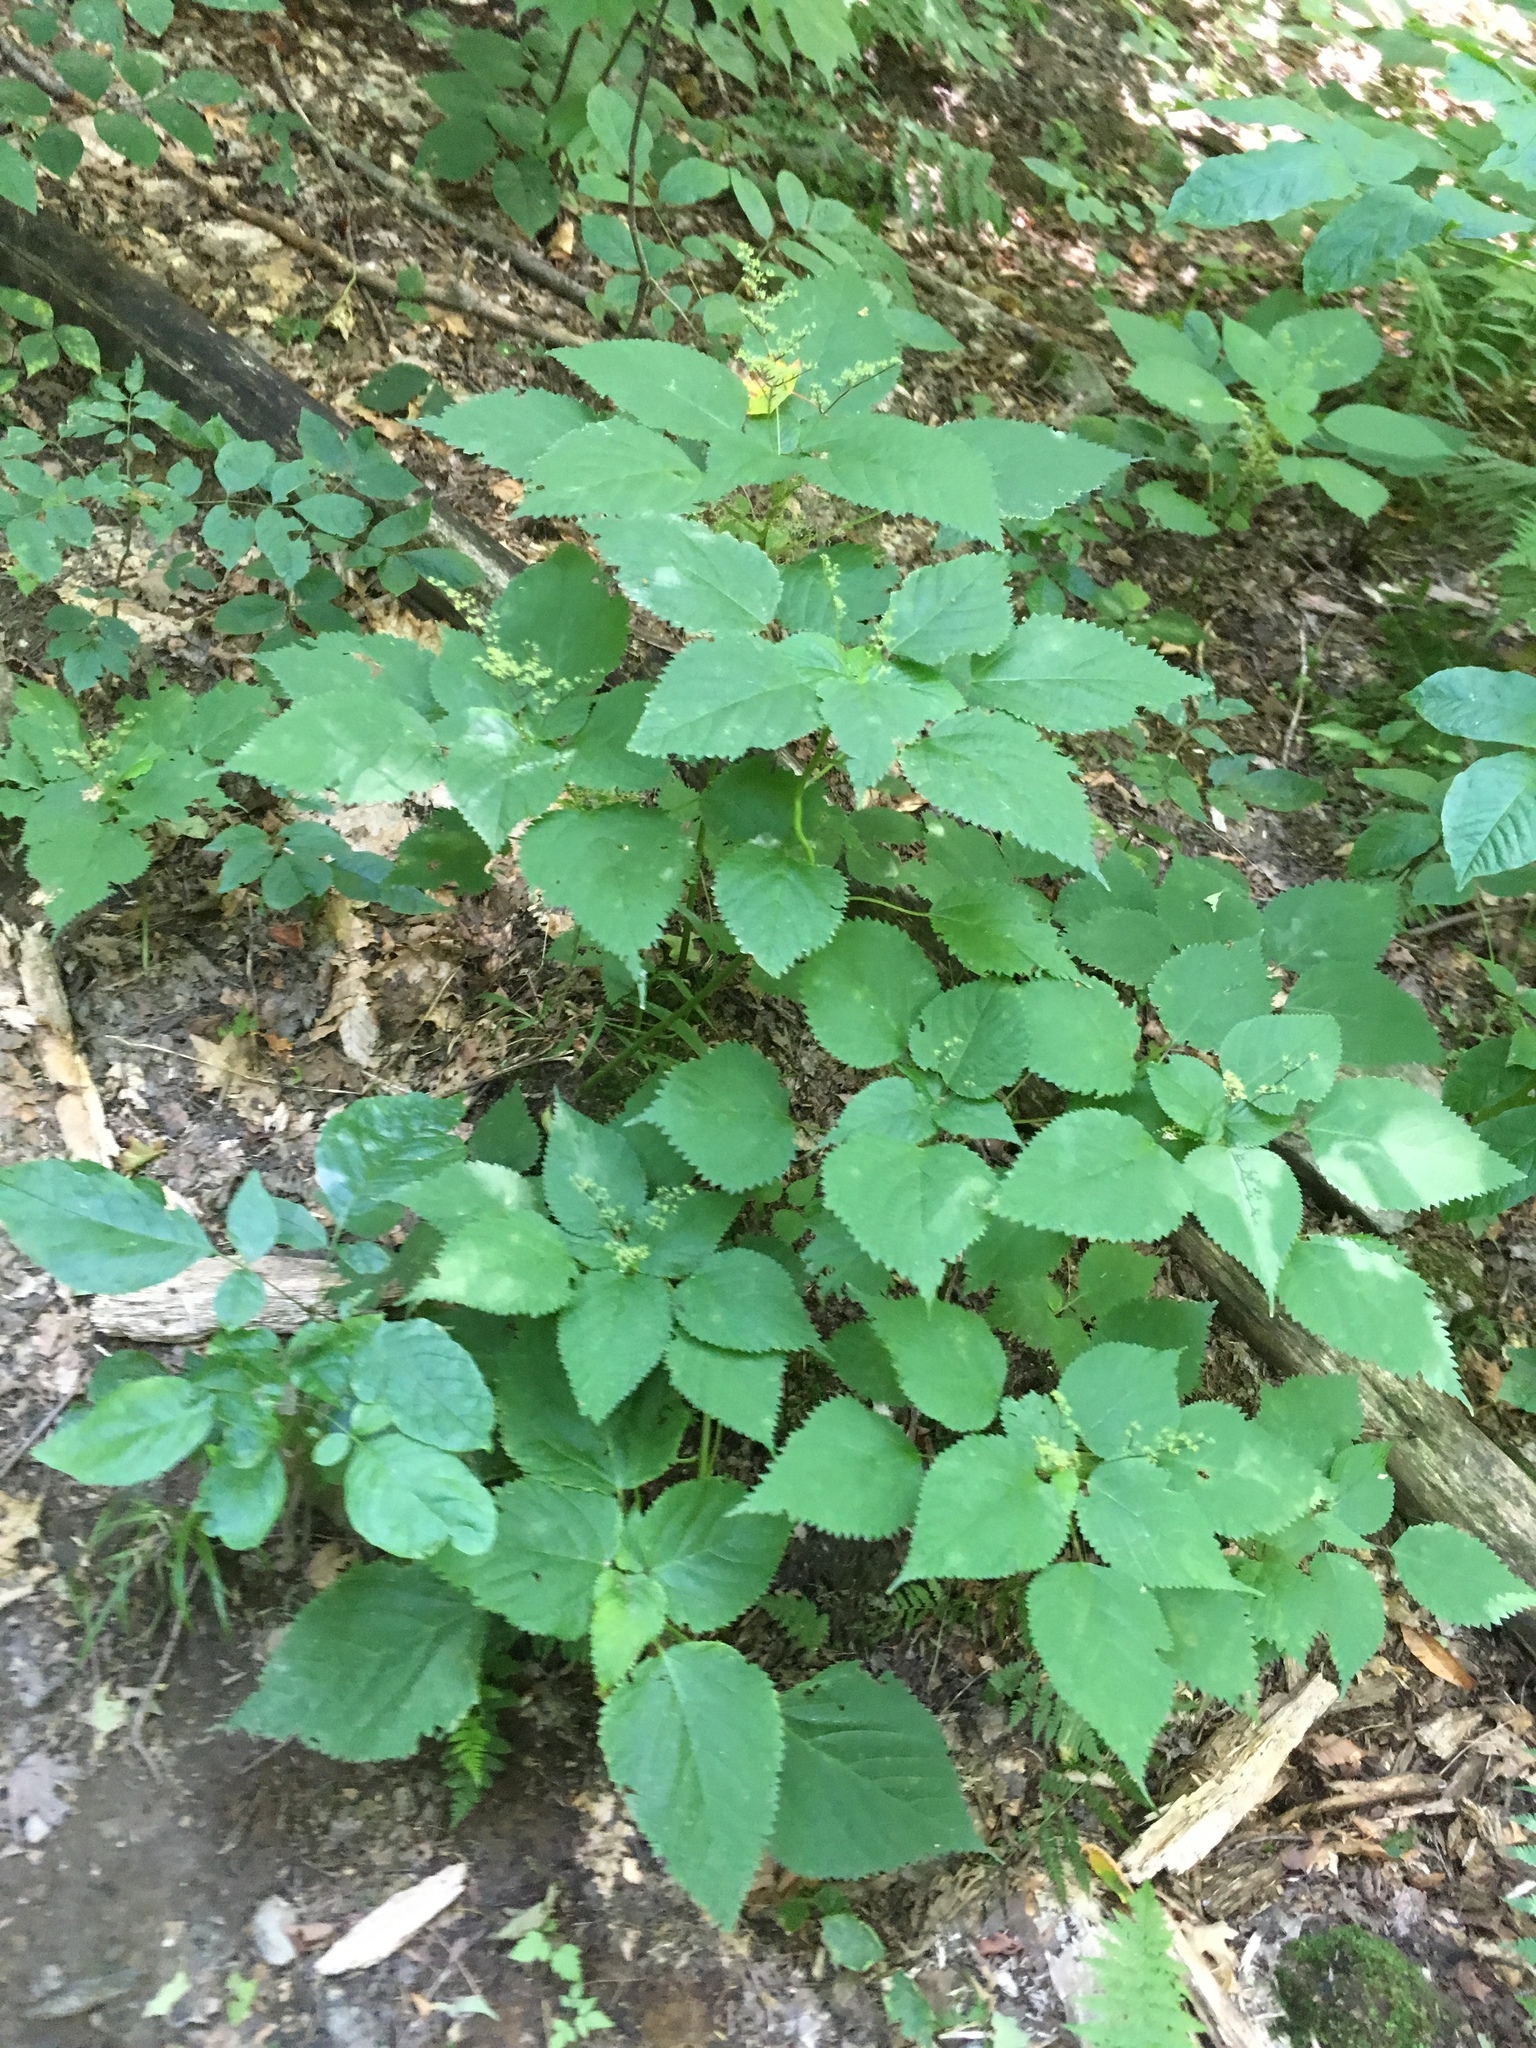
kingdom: Plantae
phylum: Tracheophyta
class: Magnoliopsida
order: Rosales
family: Urticaceae
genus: Laportea
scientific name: Laportea canadensis
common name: Canada nettle
